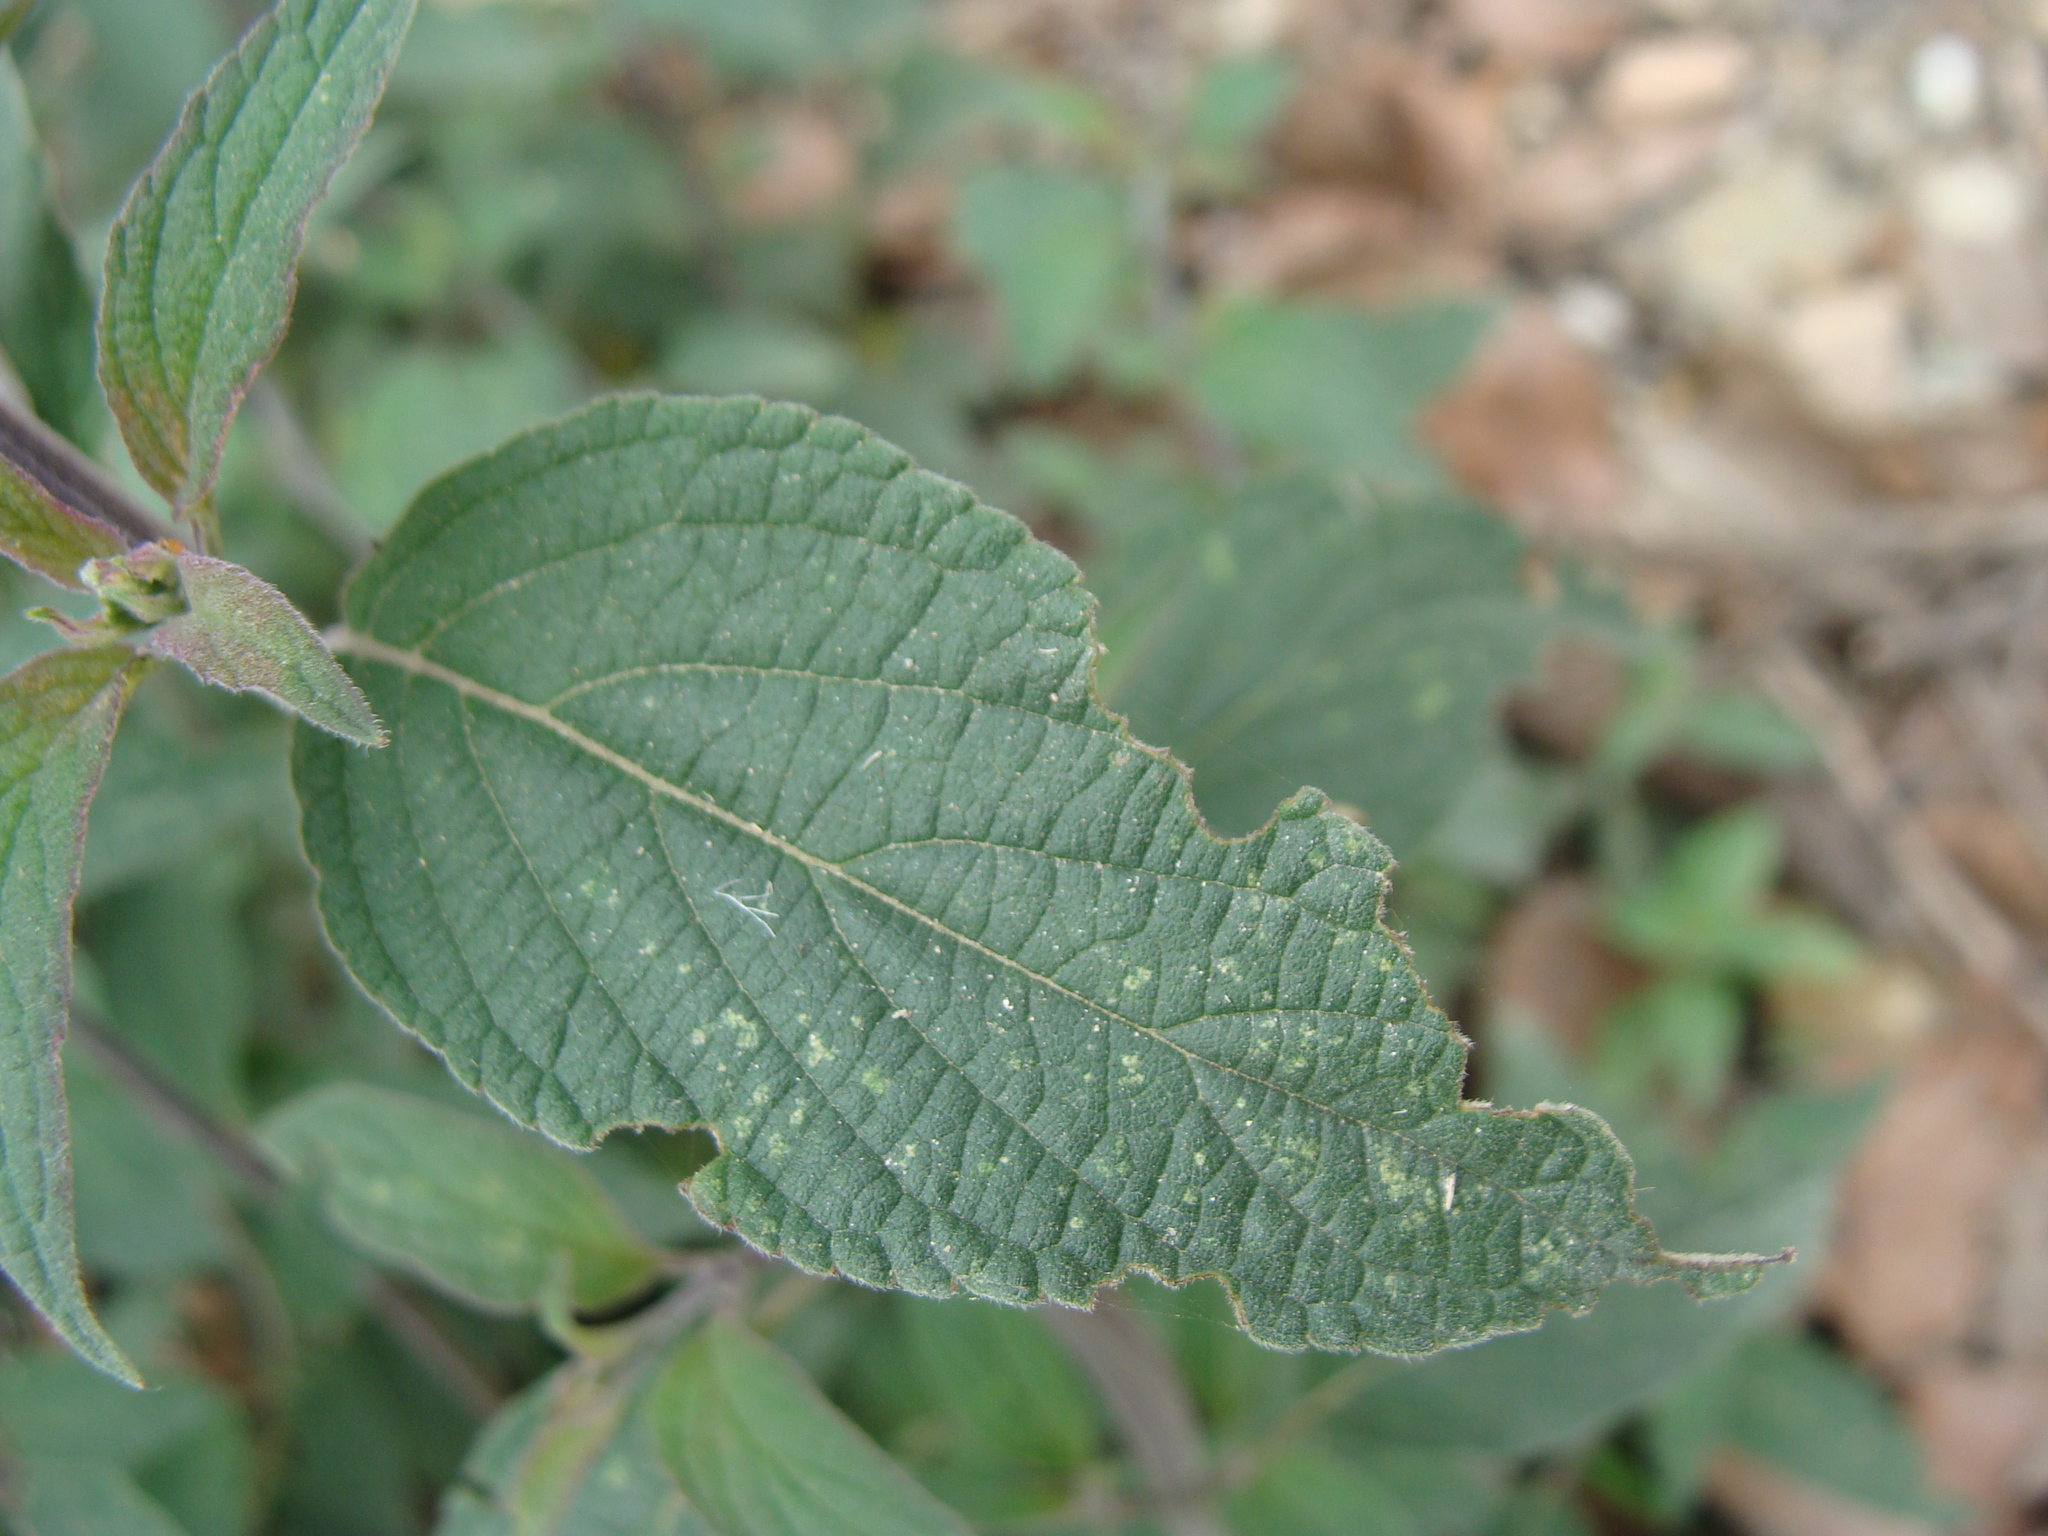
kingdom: Plantae
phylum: Tracheophyta
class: Magnoliopsida
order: Lamiales
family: Lamiaceae
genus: Salvia
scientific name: Salvia curviflora
